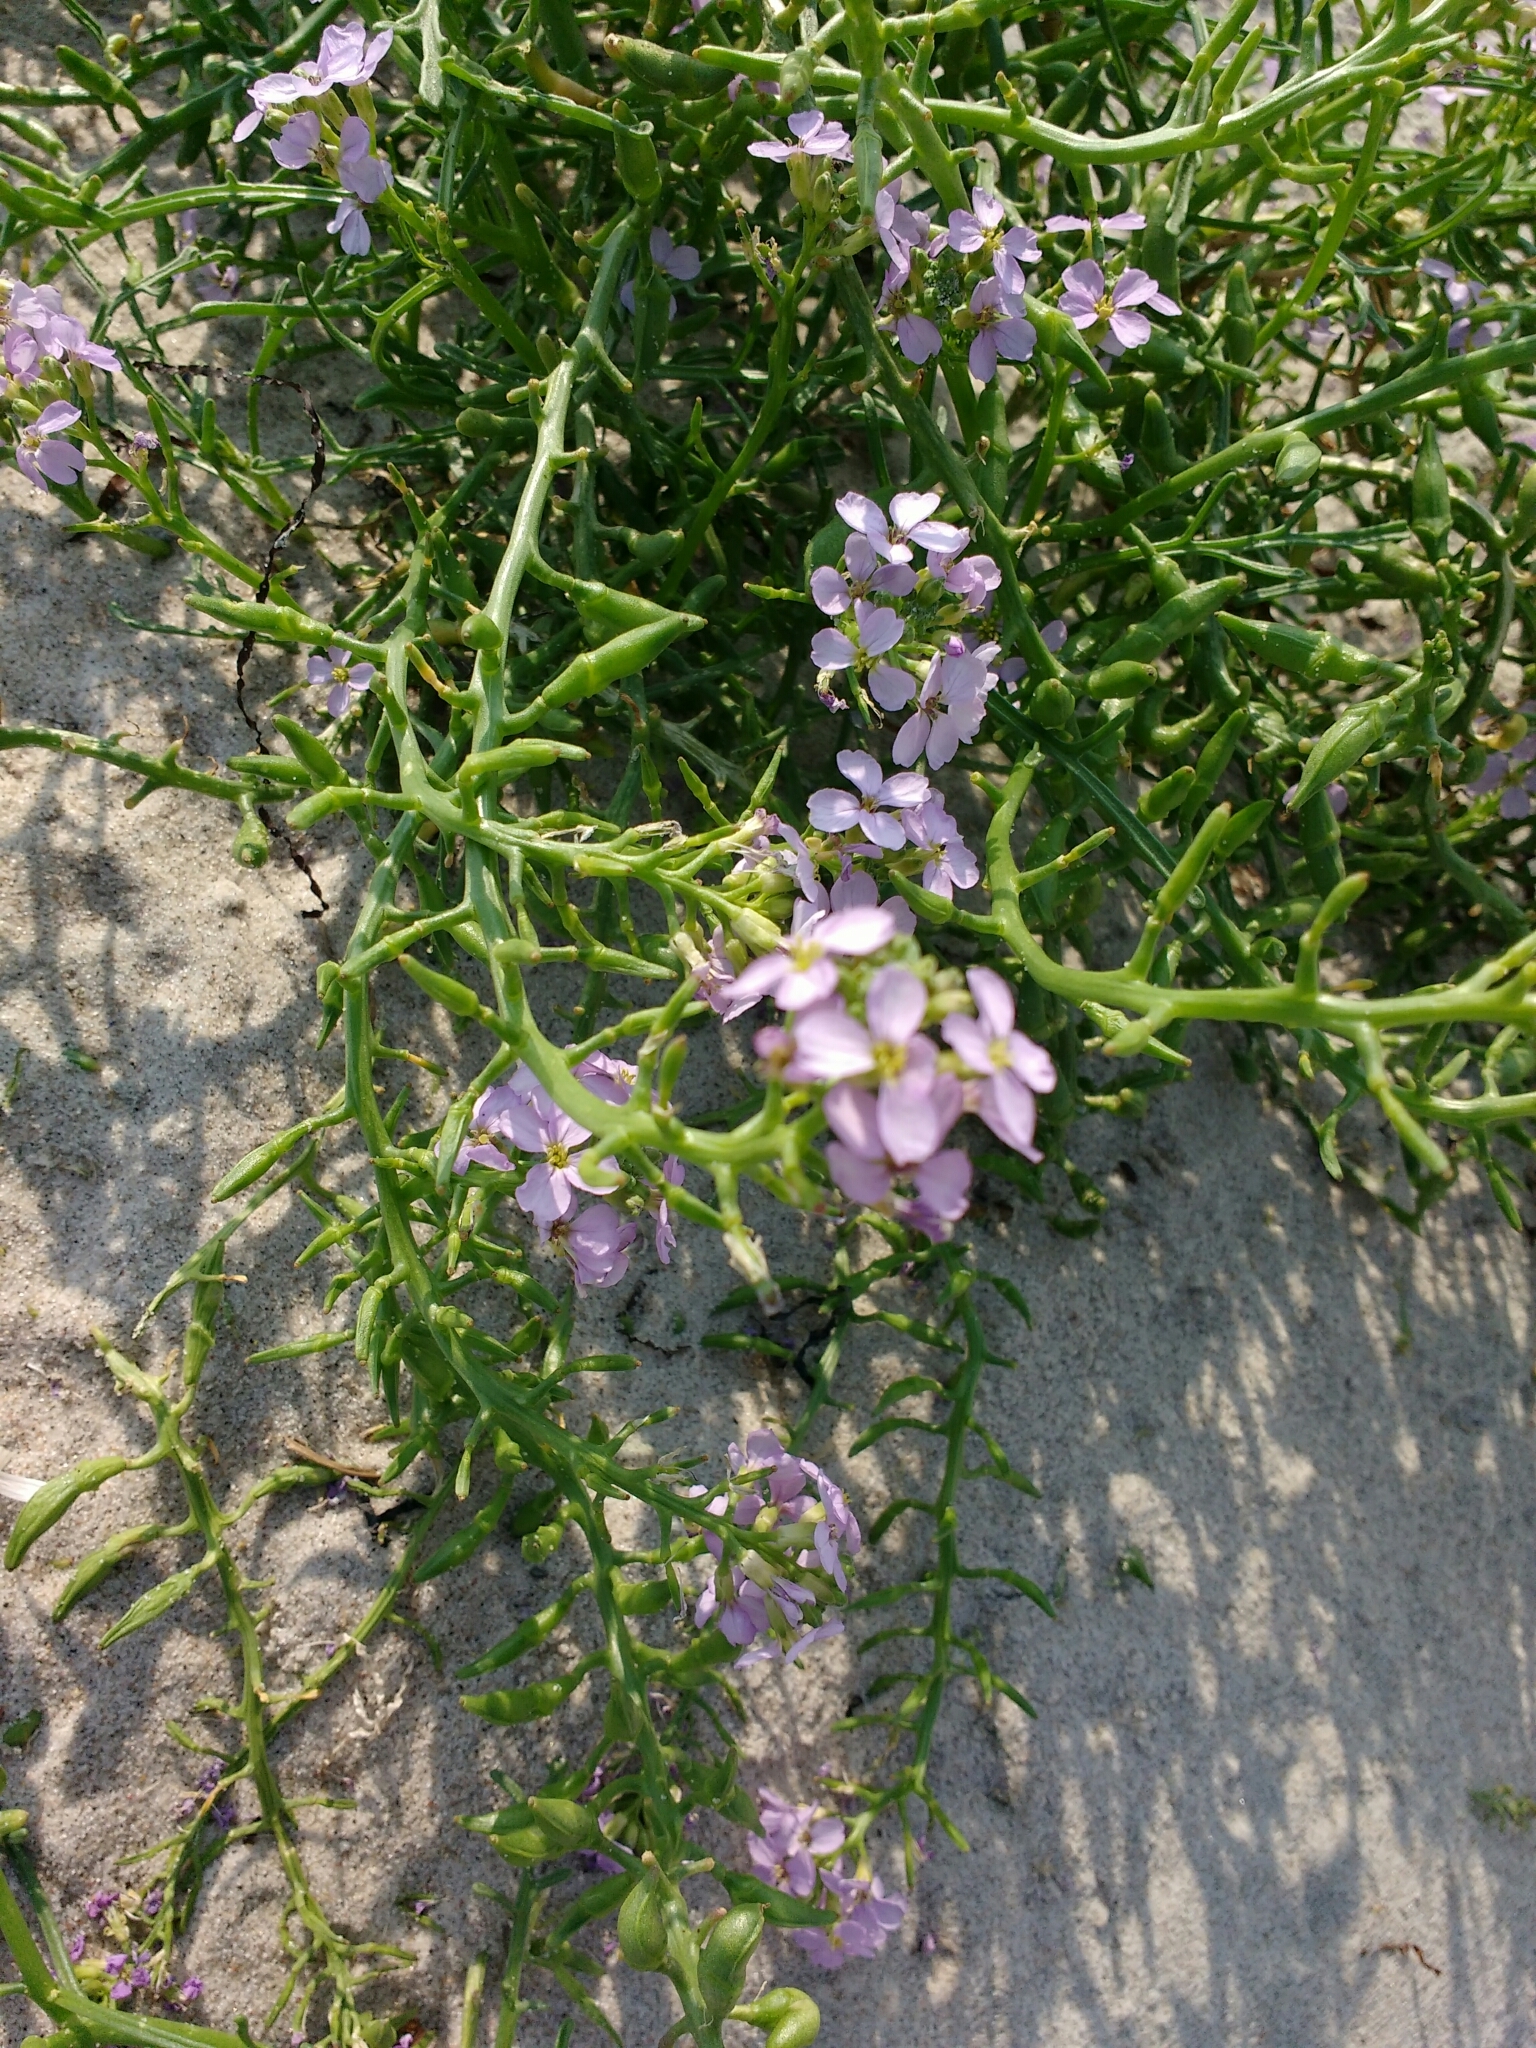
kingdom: Plantae
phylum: Tracheophyta
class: Magnoliopsida
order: Brassicales
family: Brassicaceae
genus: Cakile
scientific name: Cakile maritima
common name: Sea rocket
